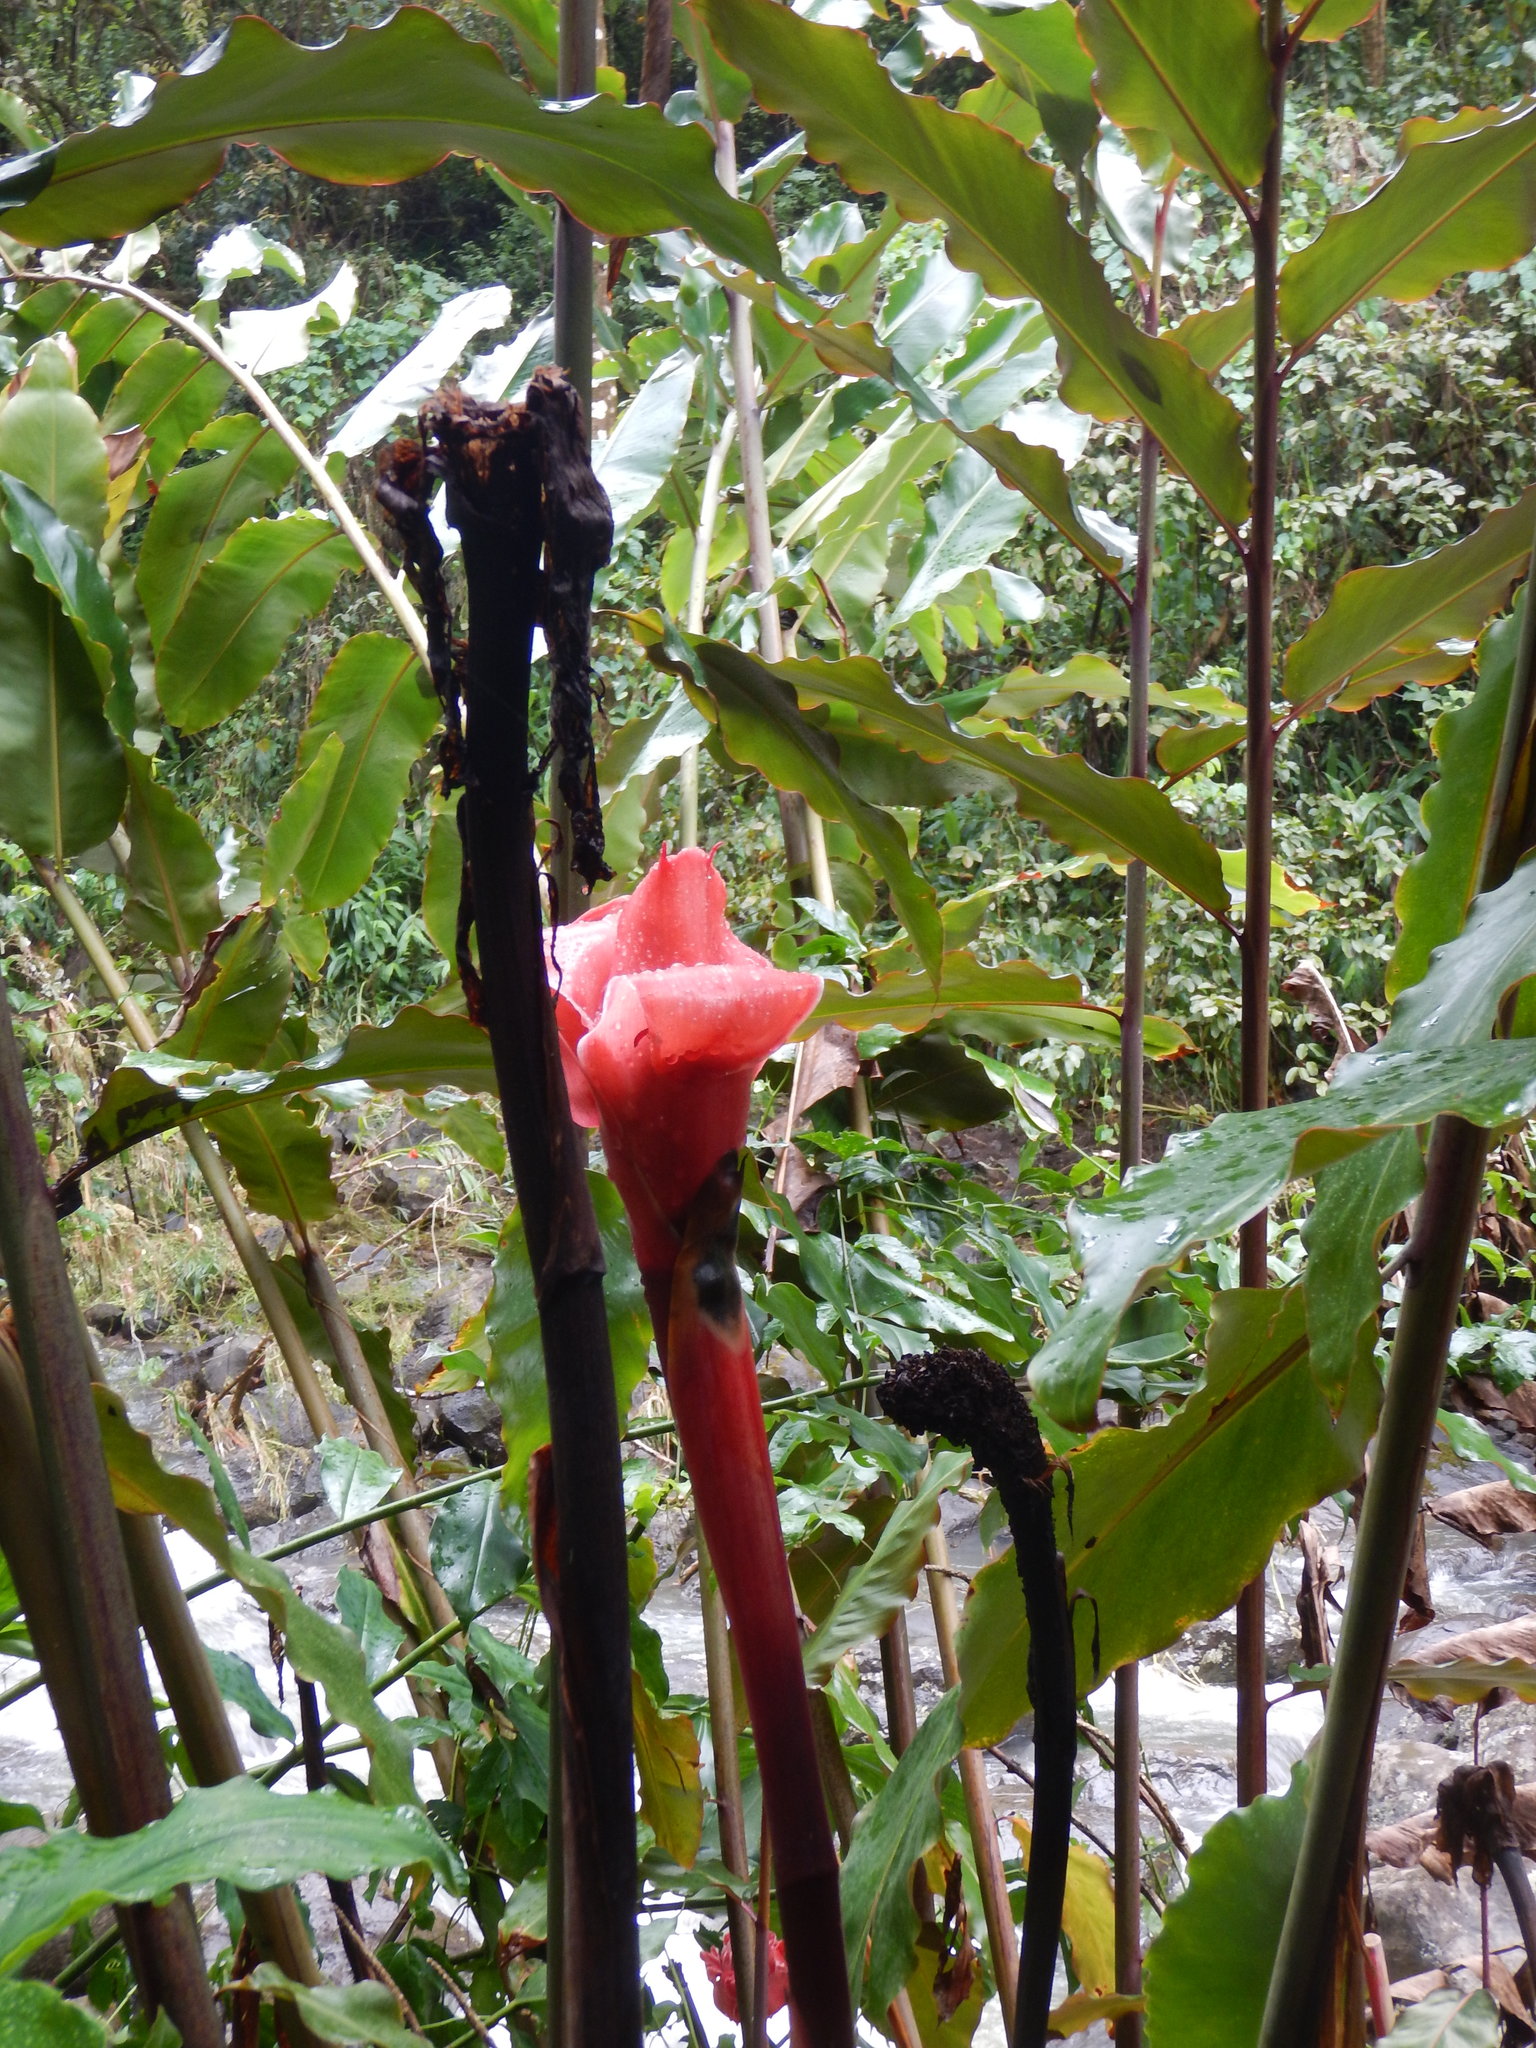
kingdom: Plantae
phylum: Tracheophyta
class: Liliopsida
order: Zingiberales
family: Zingiberaceae
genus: Etlingera
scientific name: Etlingera elatior
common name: Philippine waxflower
